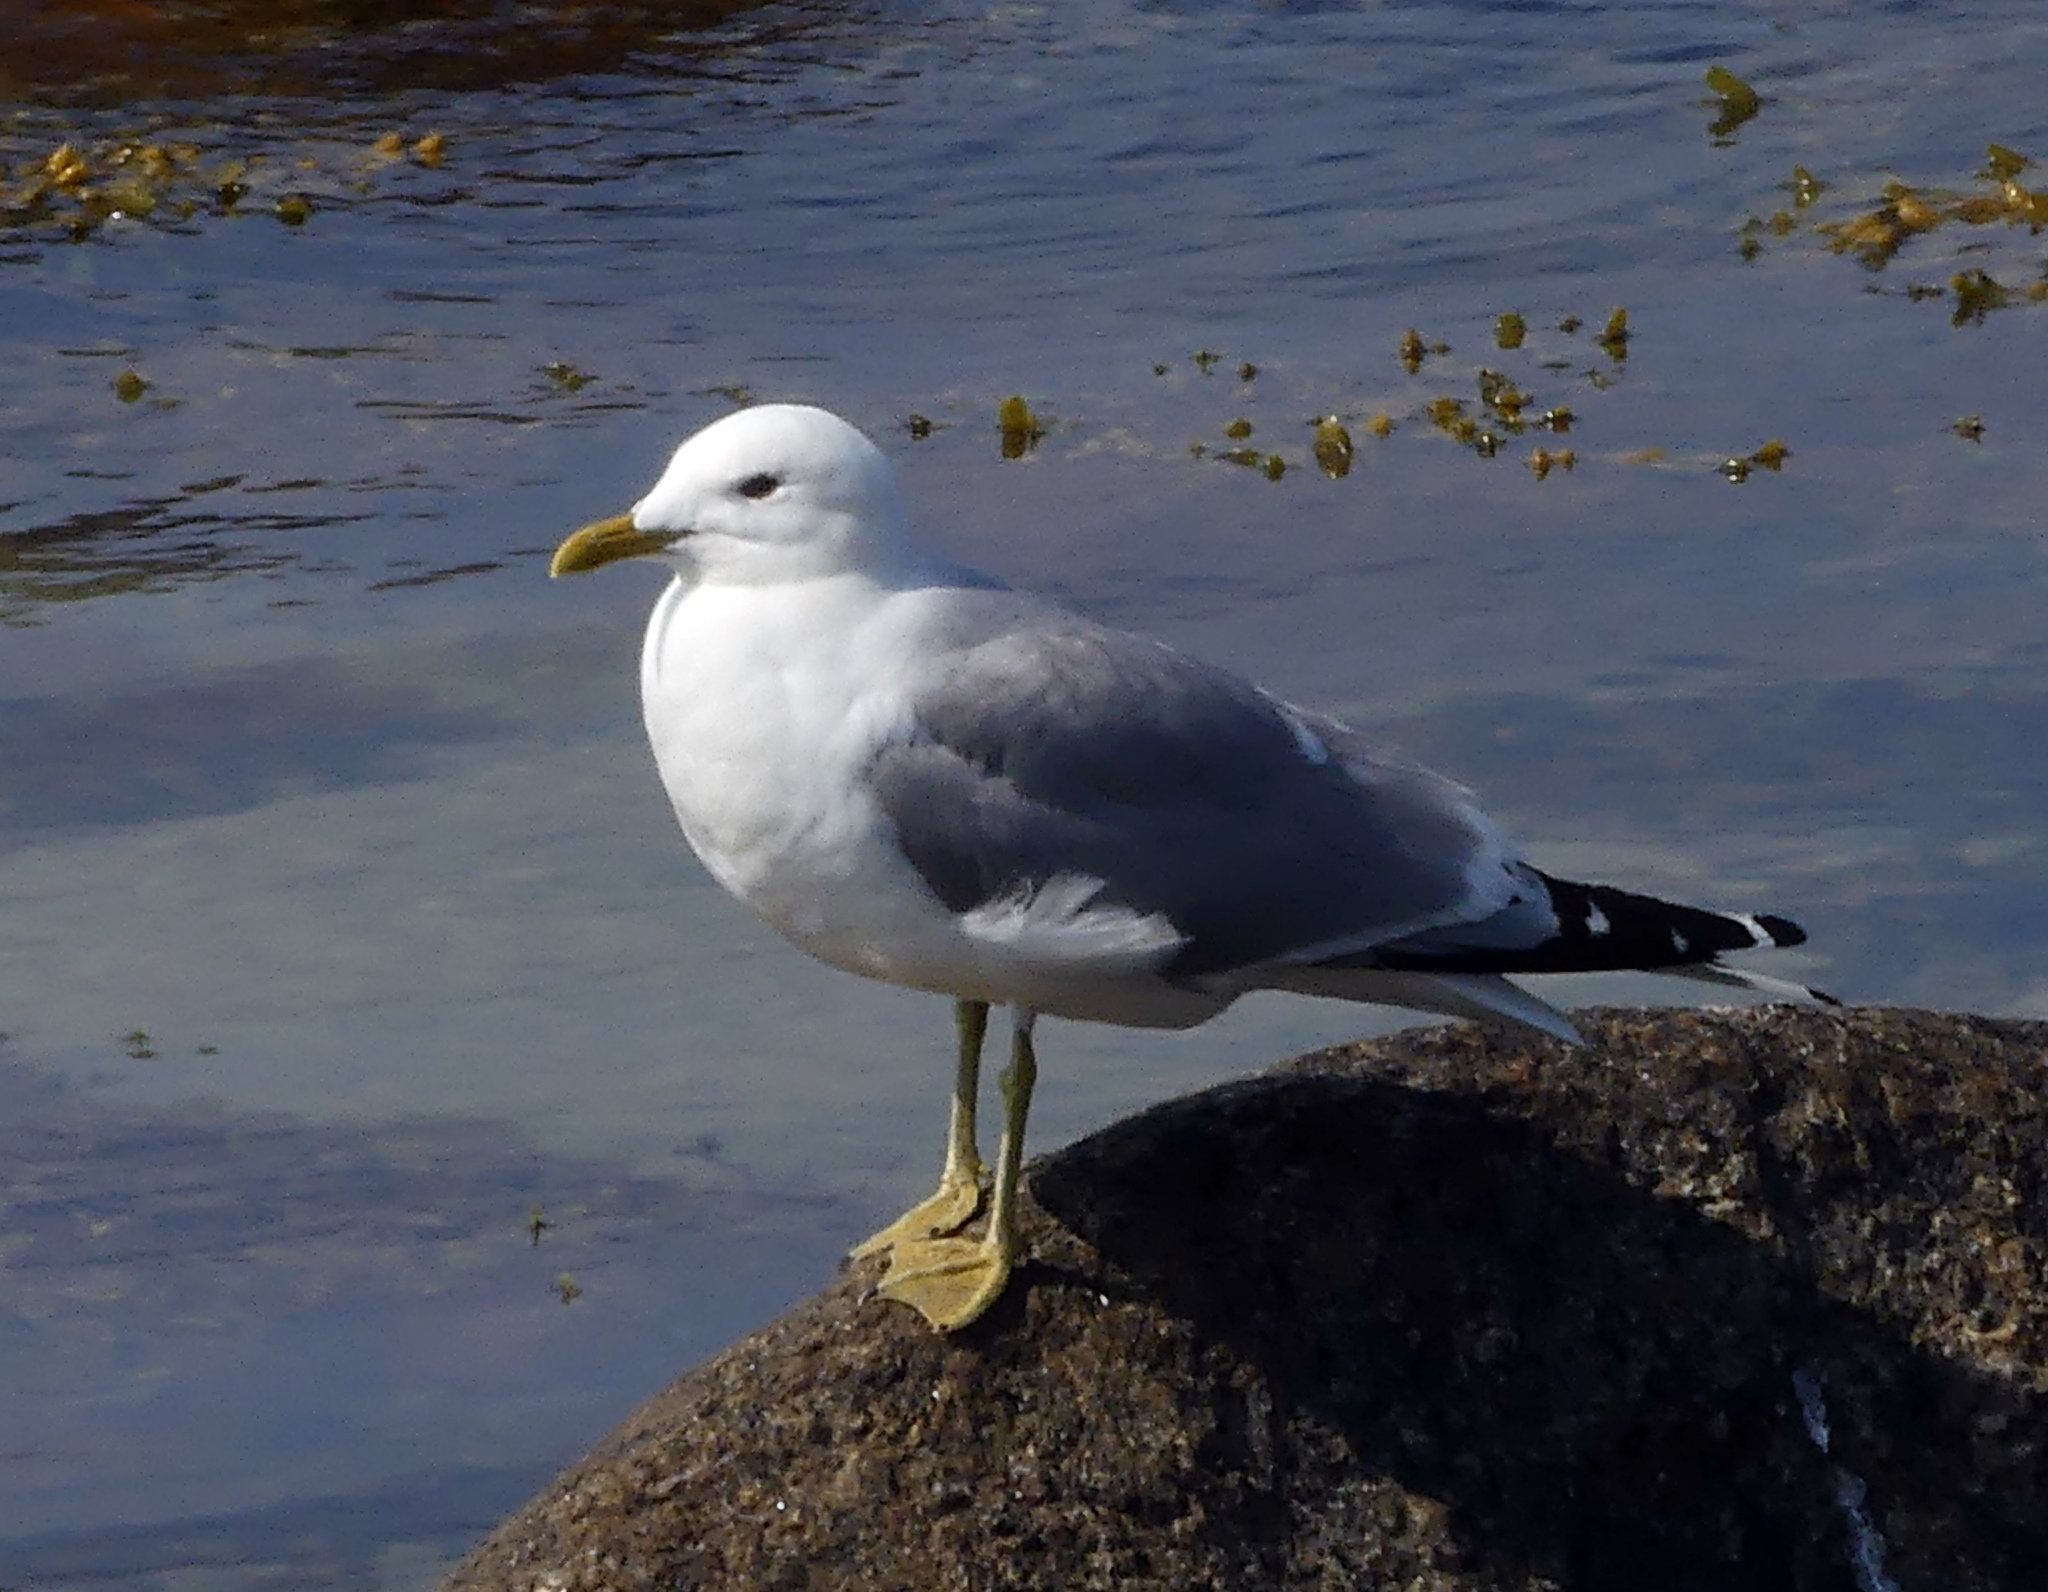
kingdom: Animalia
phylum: Chordata
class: Aves
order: Charadriiformes
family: Laridae
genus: Larus
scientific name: Larus canus
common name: Mew gull
